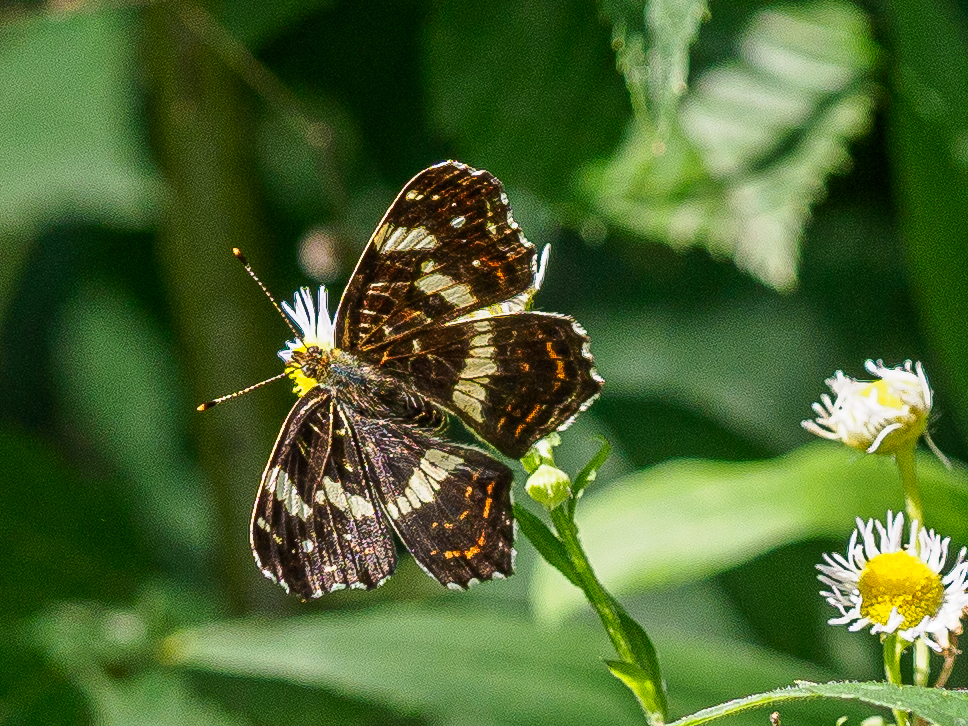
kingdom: Animalia
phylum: Arthropoda
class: Insecta
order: Lepidoptera
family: Nymphalidae
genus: Araschnia
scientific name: Araschnia levana
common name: Map butterfly
